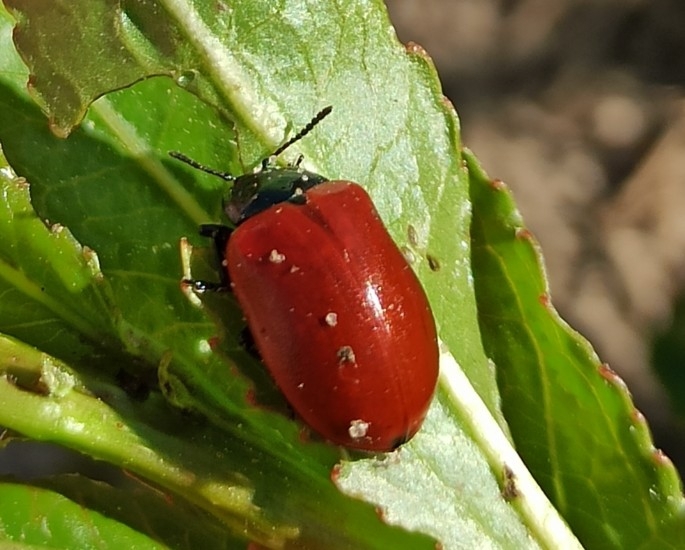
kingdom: Animalia
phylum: Arthropoda
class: Insecta
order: Coleoptera
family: Chrysomelidae
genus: Chrysomela
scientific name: Chrysomela populi
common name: Red poplar leaf beetle
